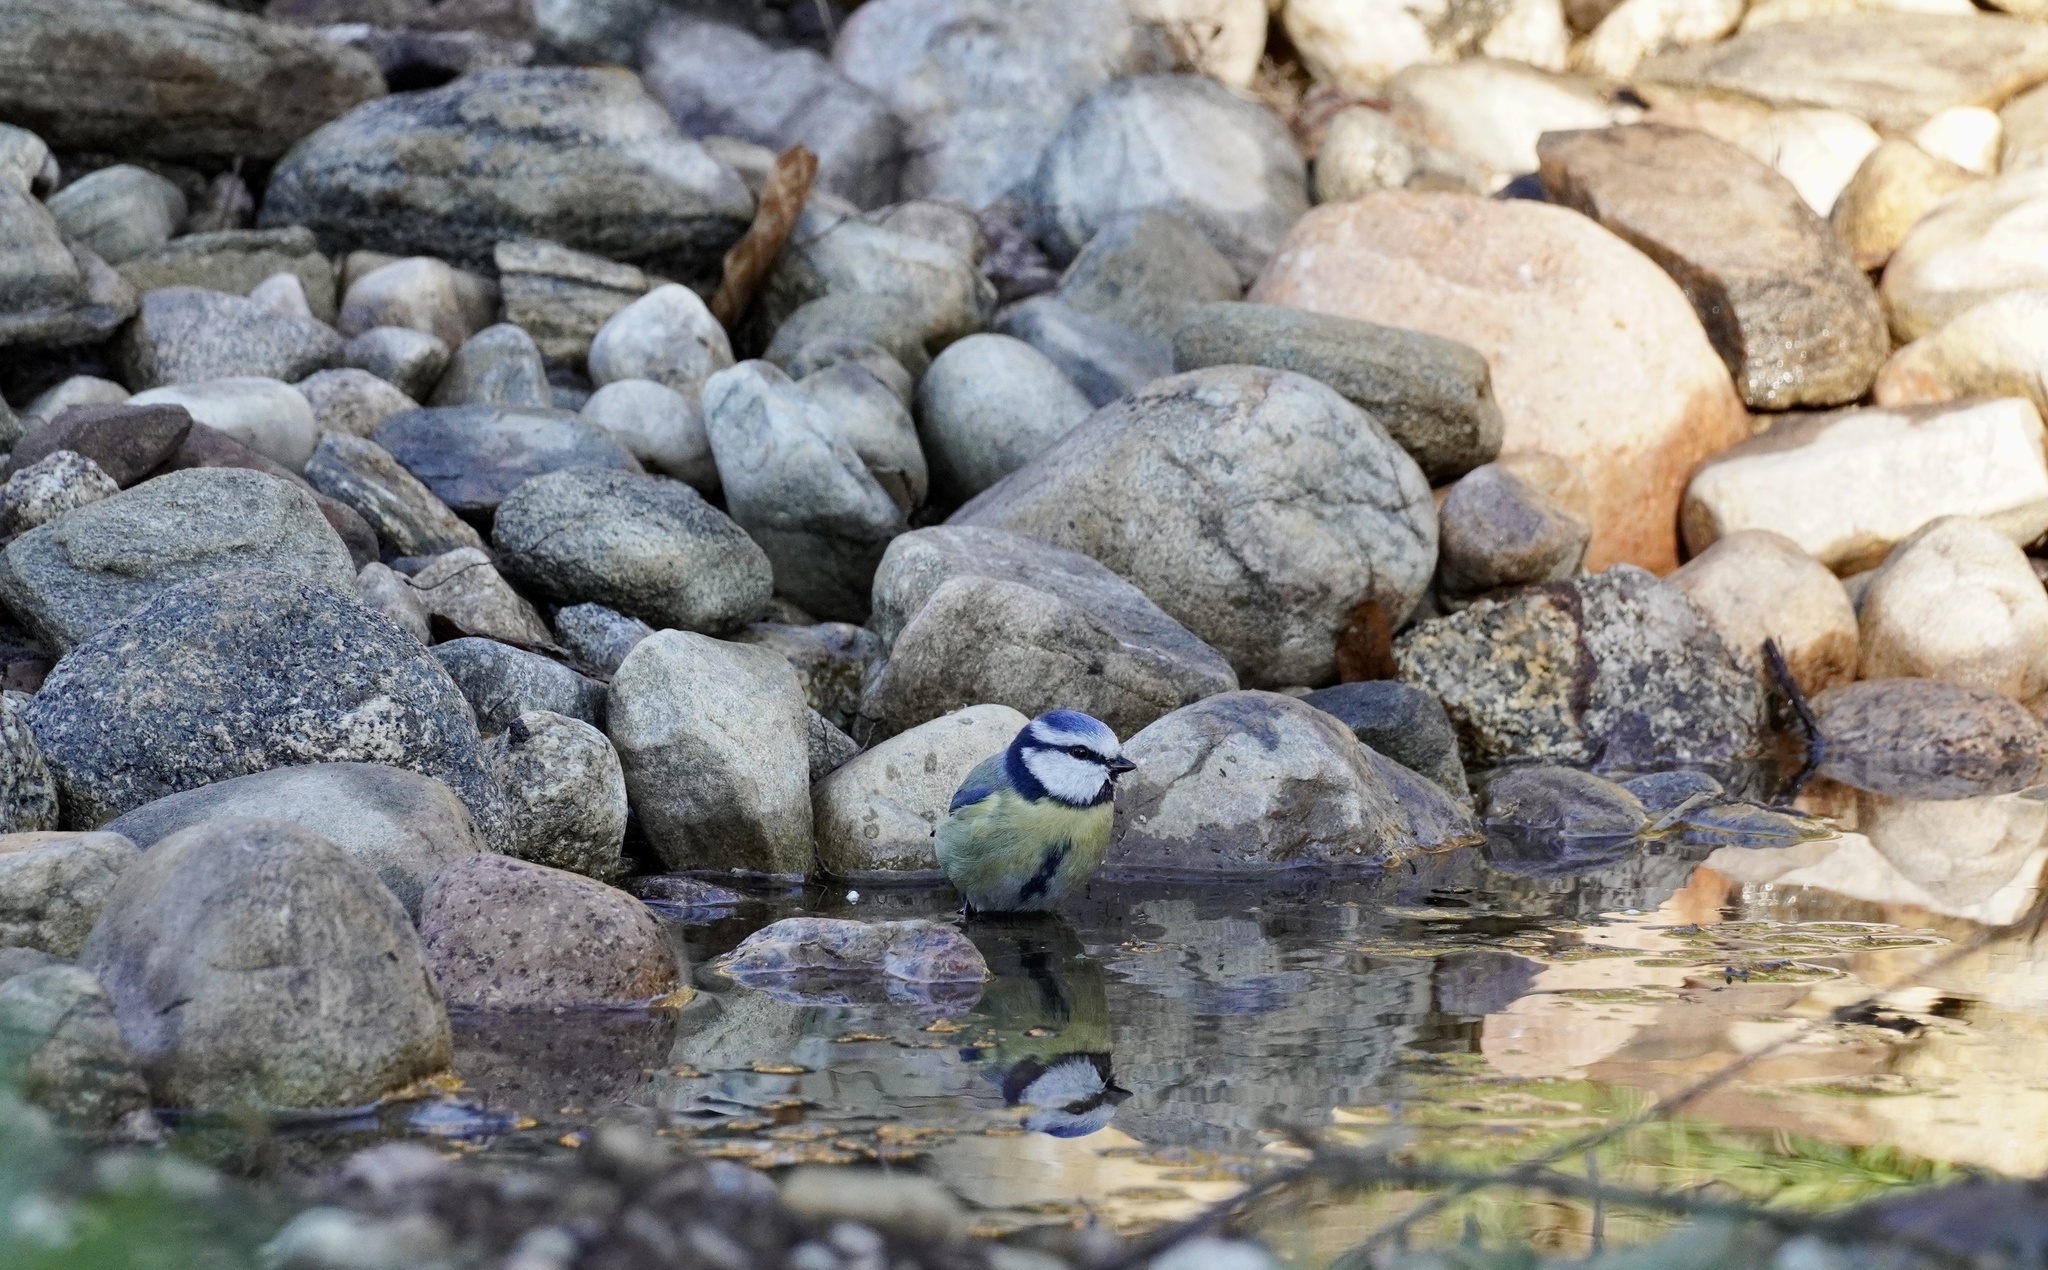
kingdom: Animalia
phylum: Chordata
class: Aves
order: Passeriformes
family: Paridae
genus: Cyanistes
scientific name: Cyanistes caeruleus
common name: Eurasian blue tit
